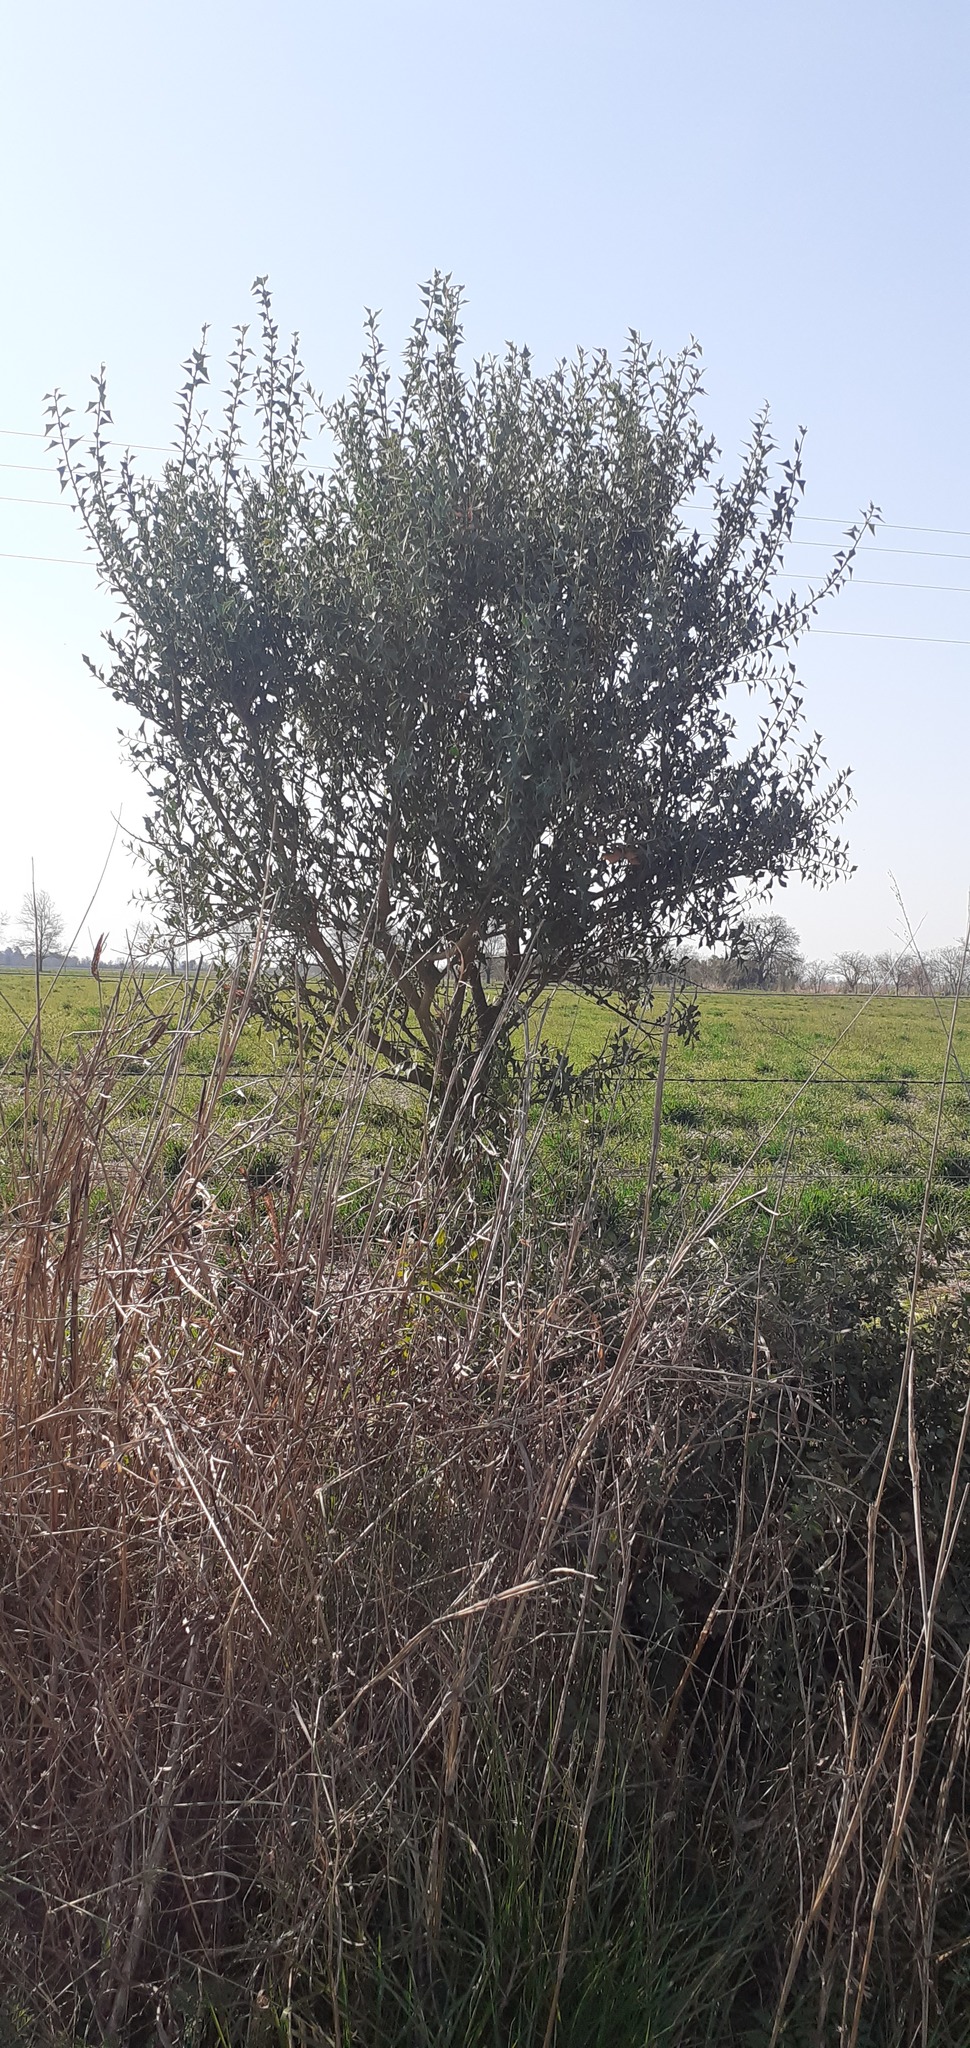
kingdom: Plantae
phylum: Tracheophyta
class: Magnoliopsida
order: Santalales
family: Cervantesiaceae
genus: Jodina
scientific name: Jodina rhombifolia
